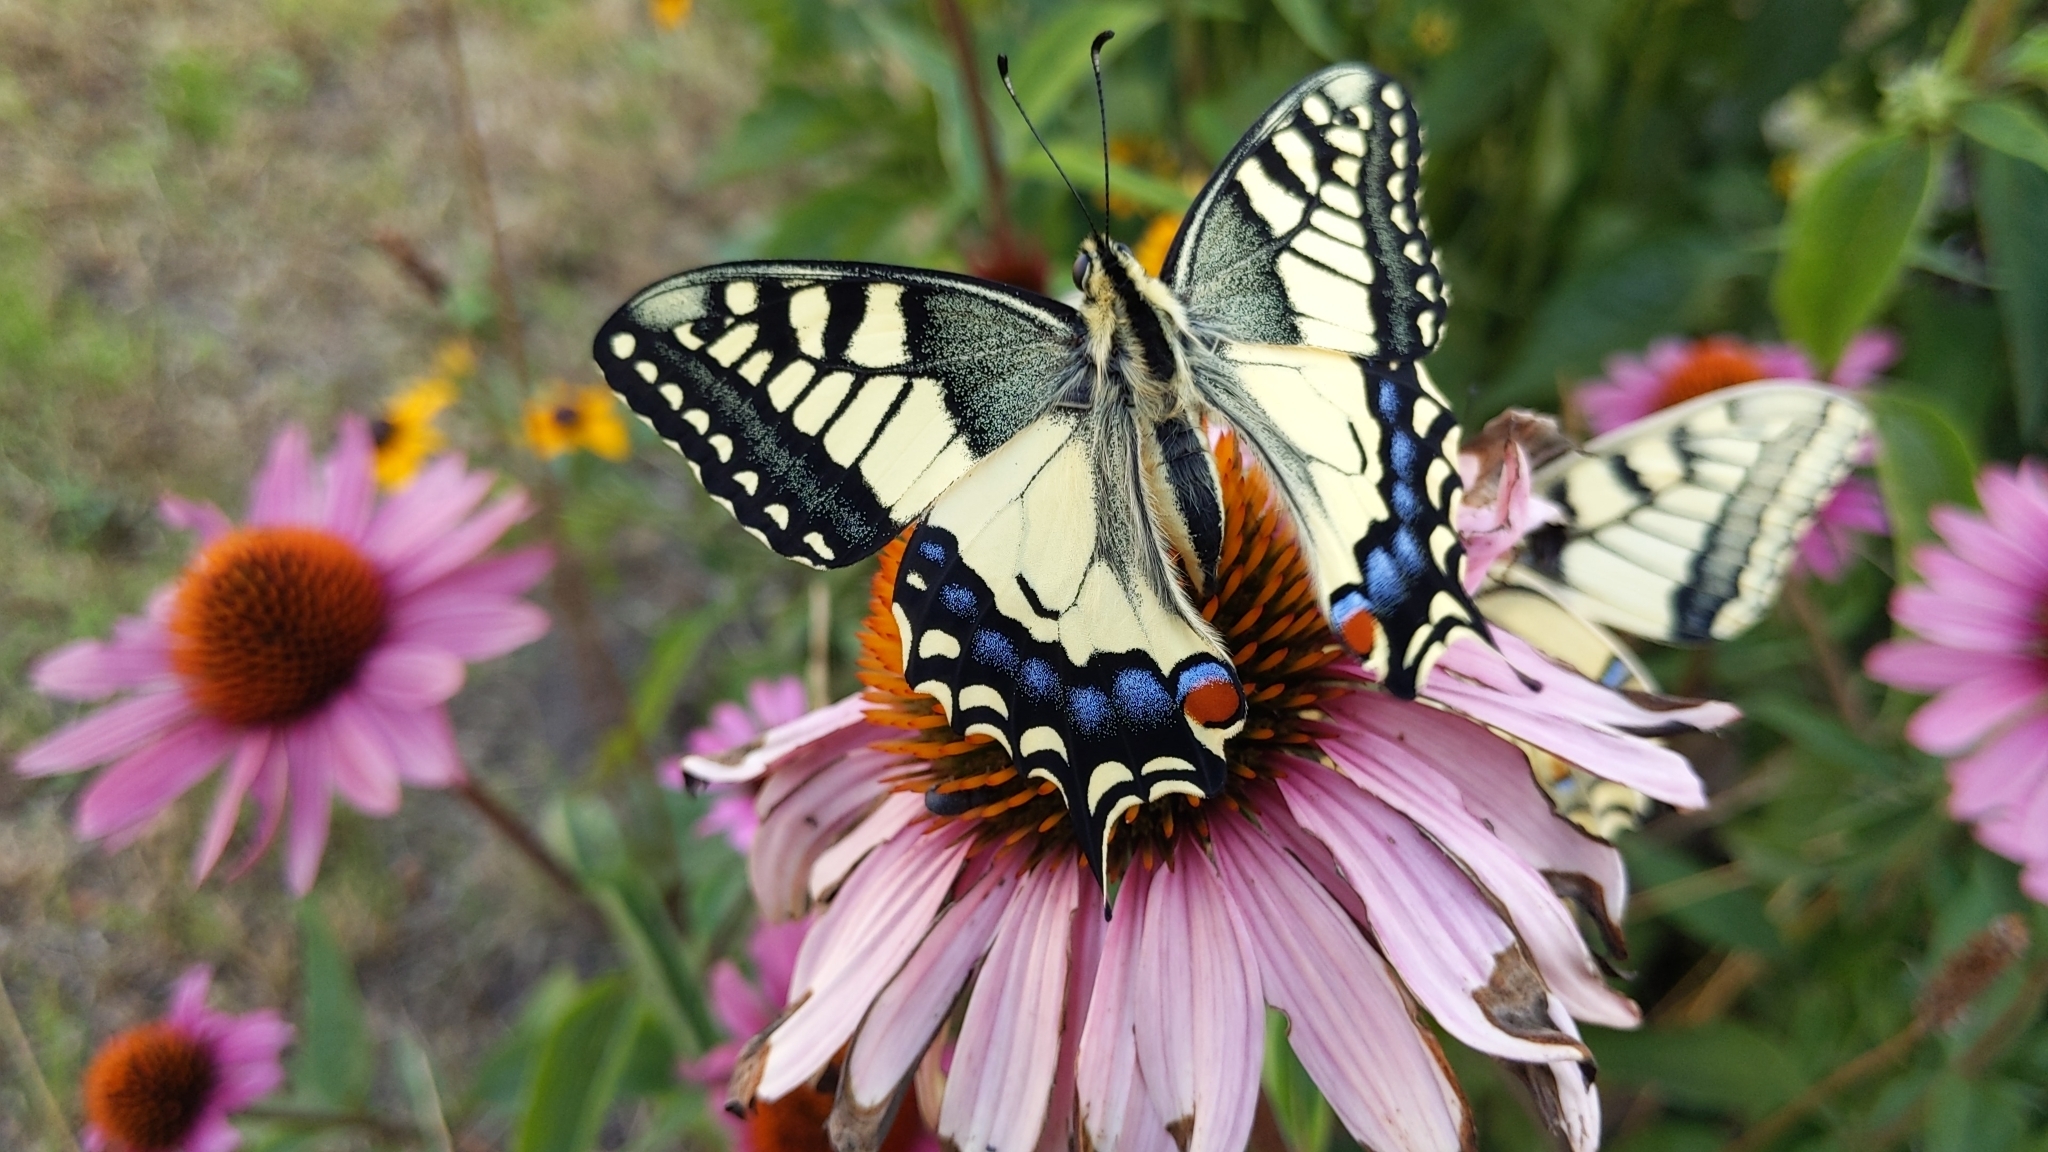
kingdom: Animalia
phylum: Arthropoda
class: Insecta
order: Lepidoptera
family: Papilionidae
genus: Papilio
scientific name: Papilio machaon
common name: Swallowtail
